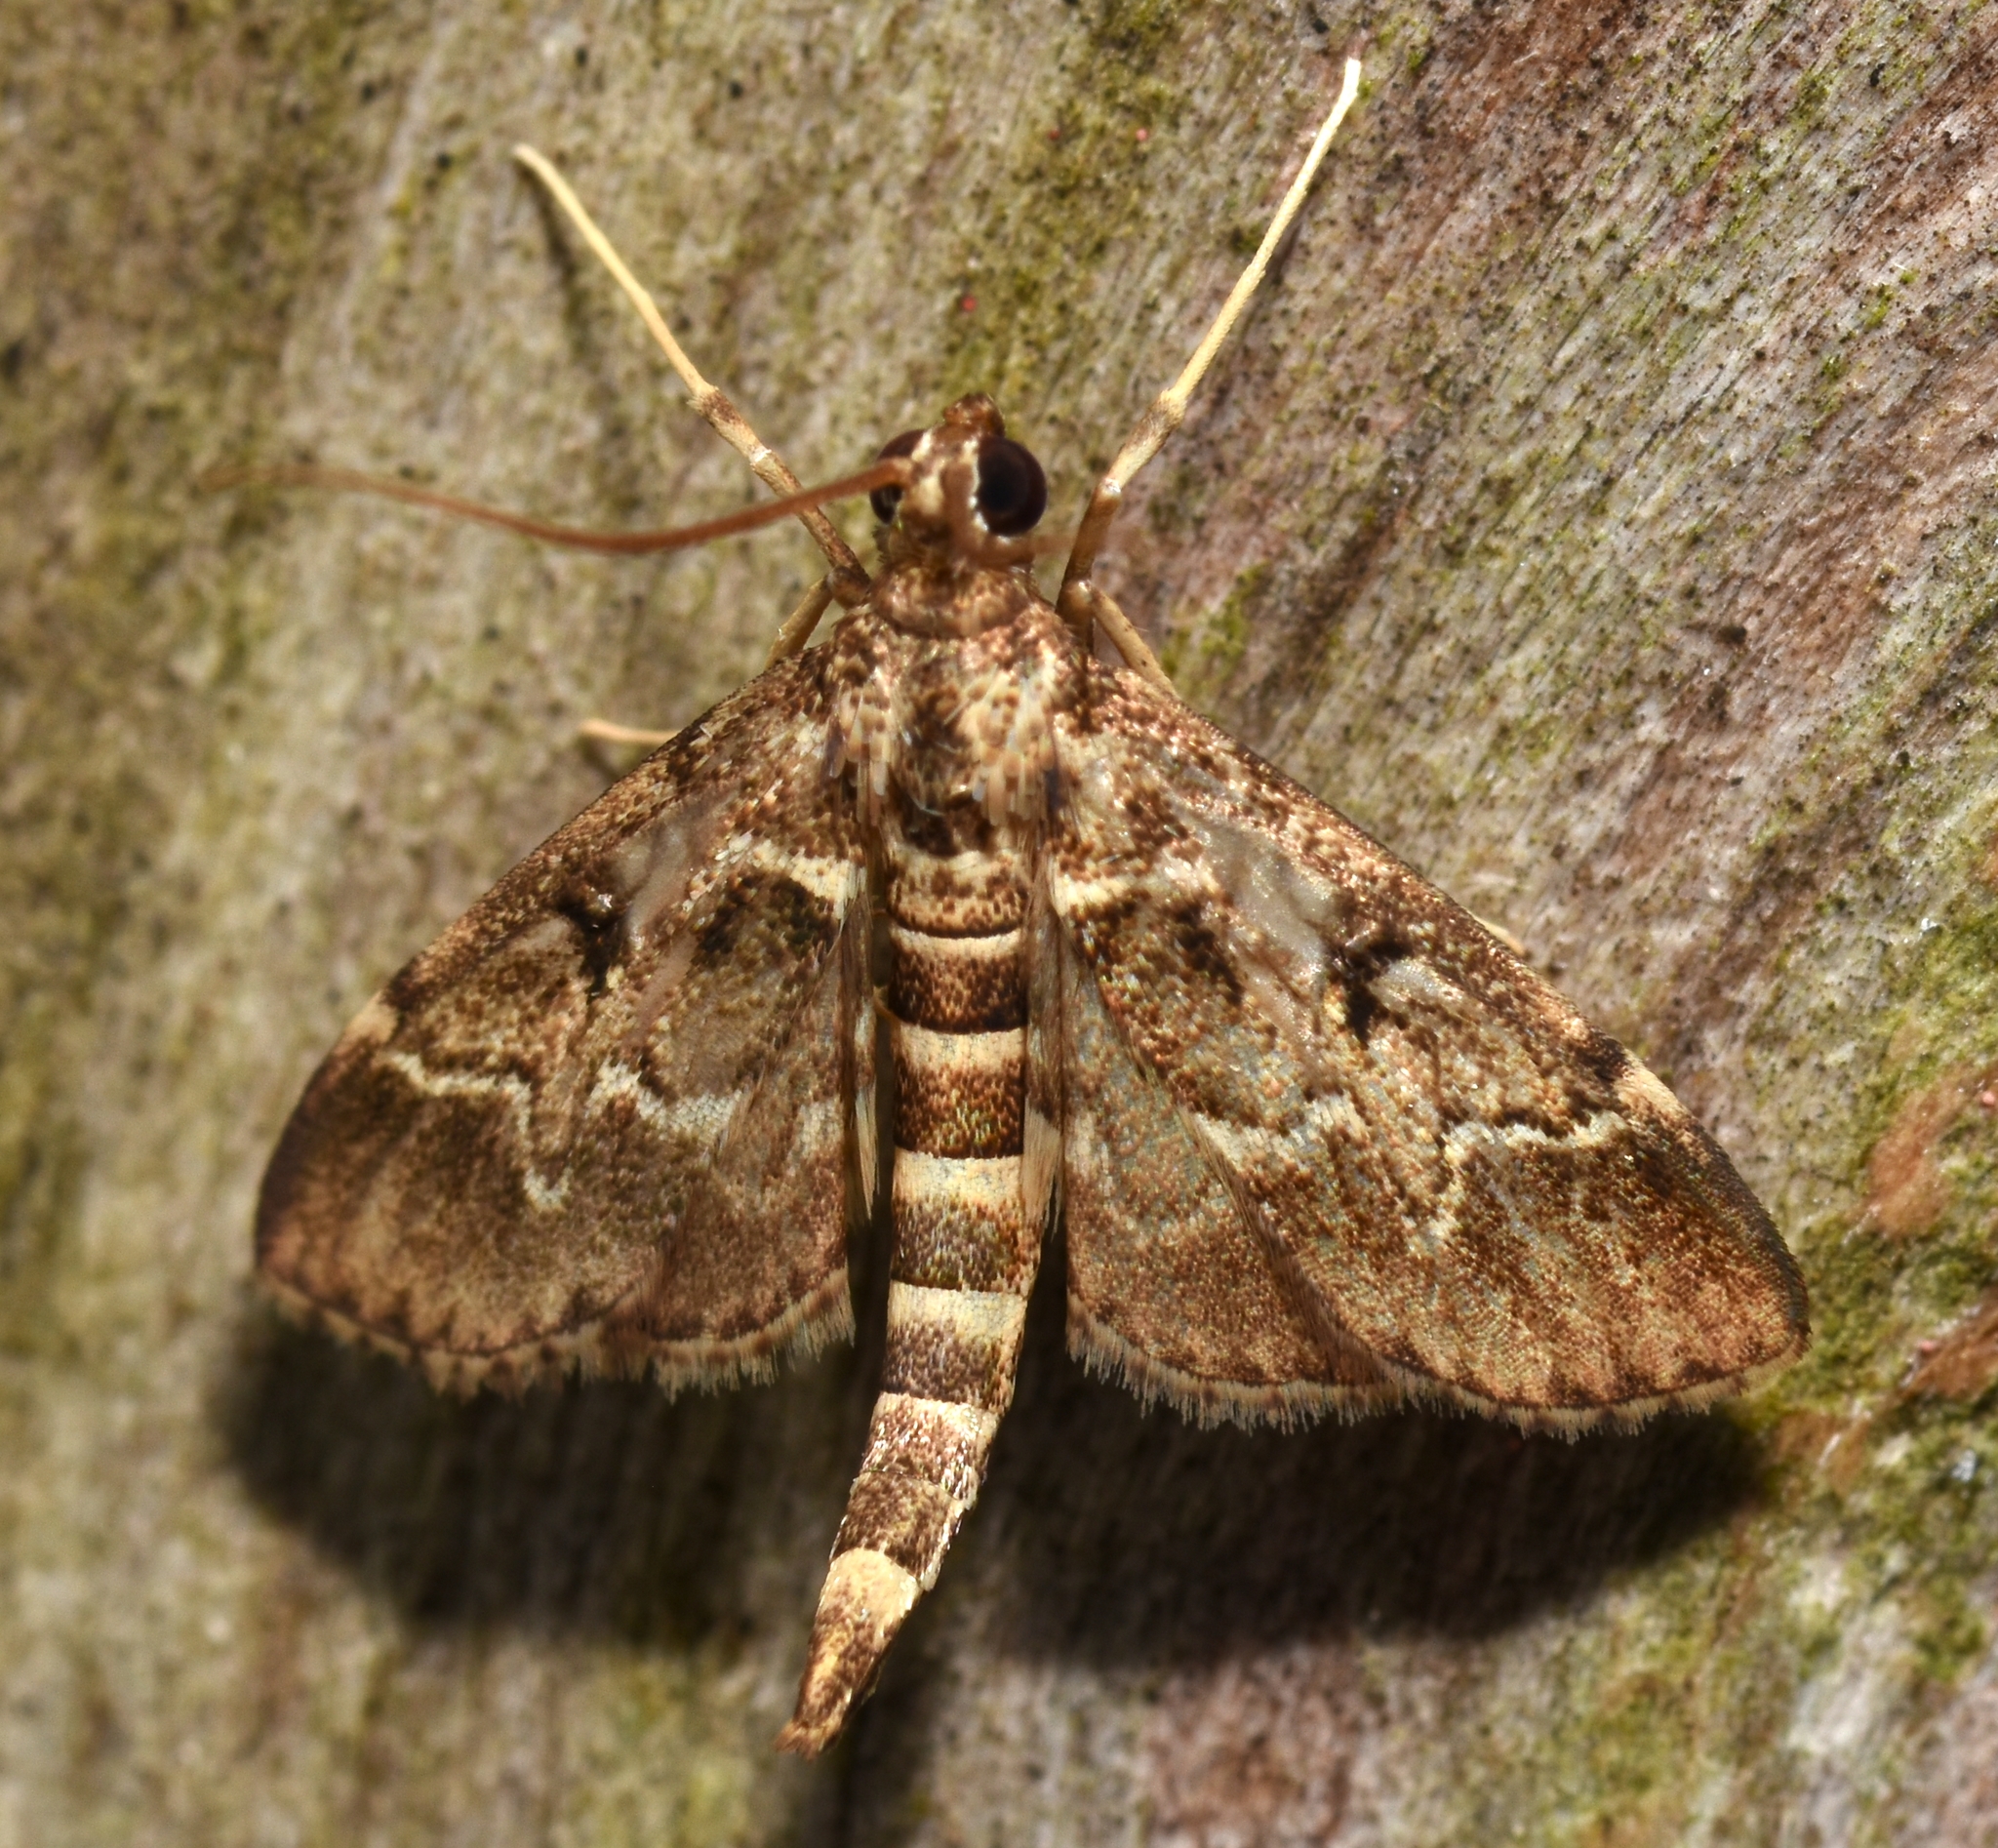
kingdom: Animalia
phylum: Arthropoda
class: Insecta
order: Lepidoptera
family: Crambidae
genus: Duponchelia
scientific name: Duponchelia fovealis
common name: Crambid moth
